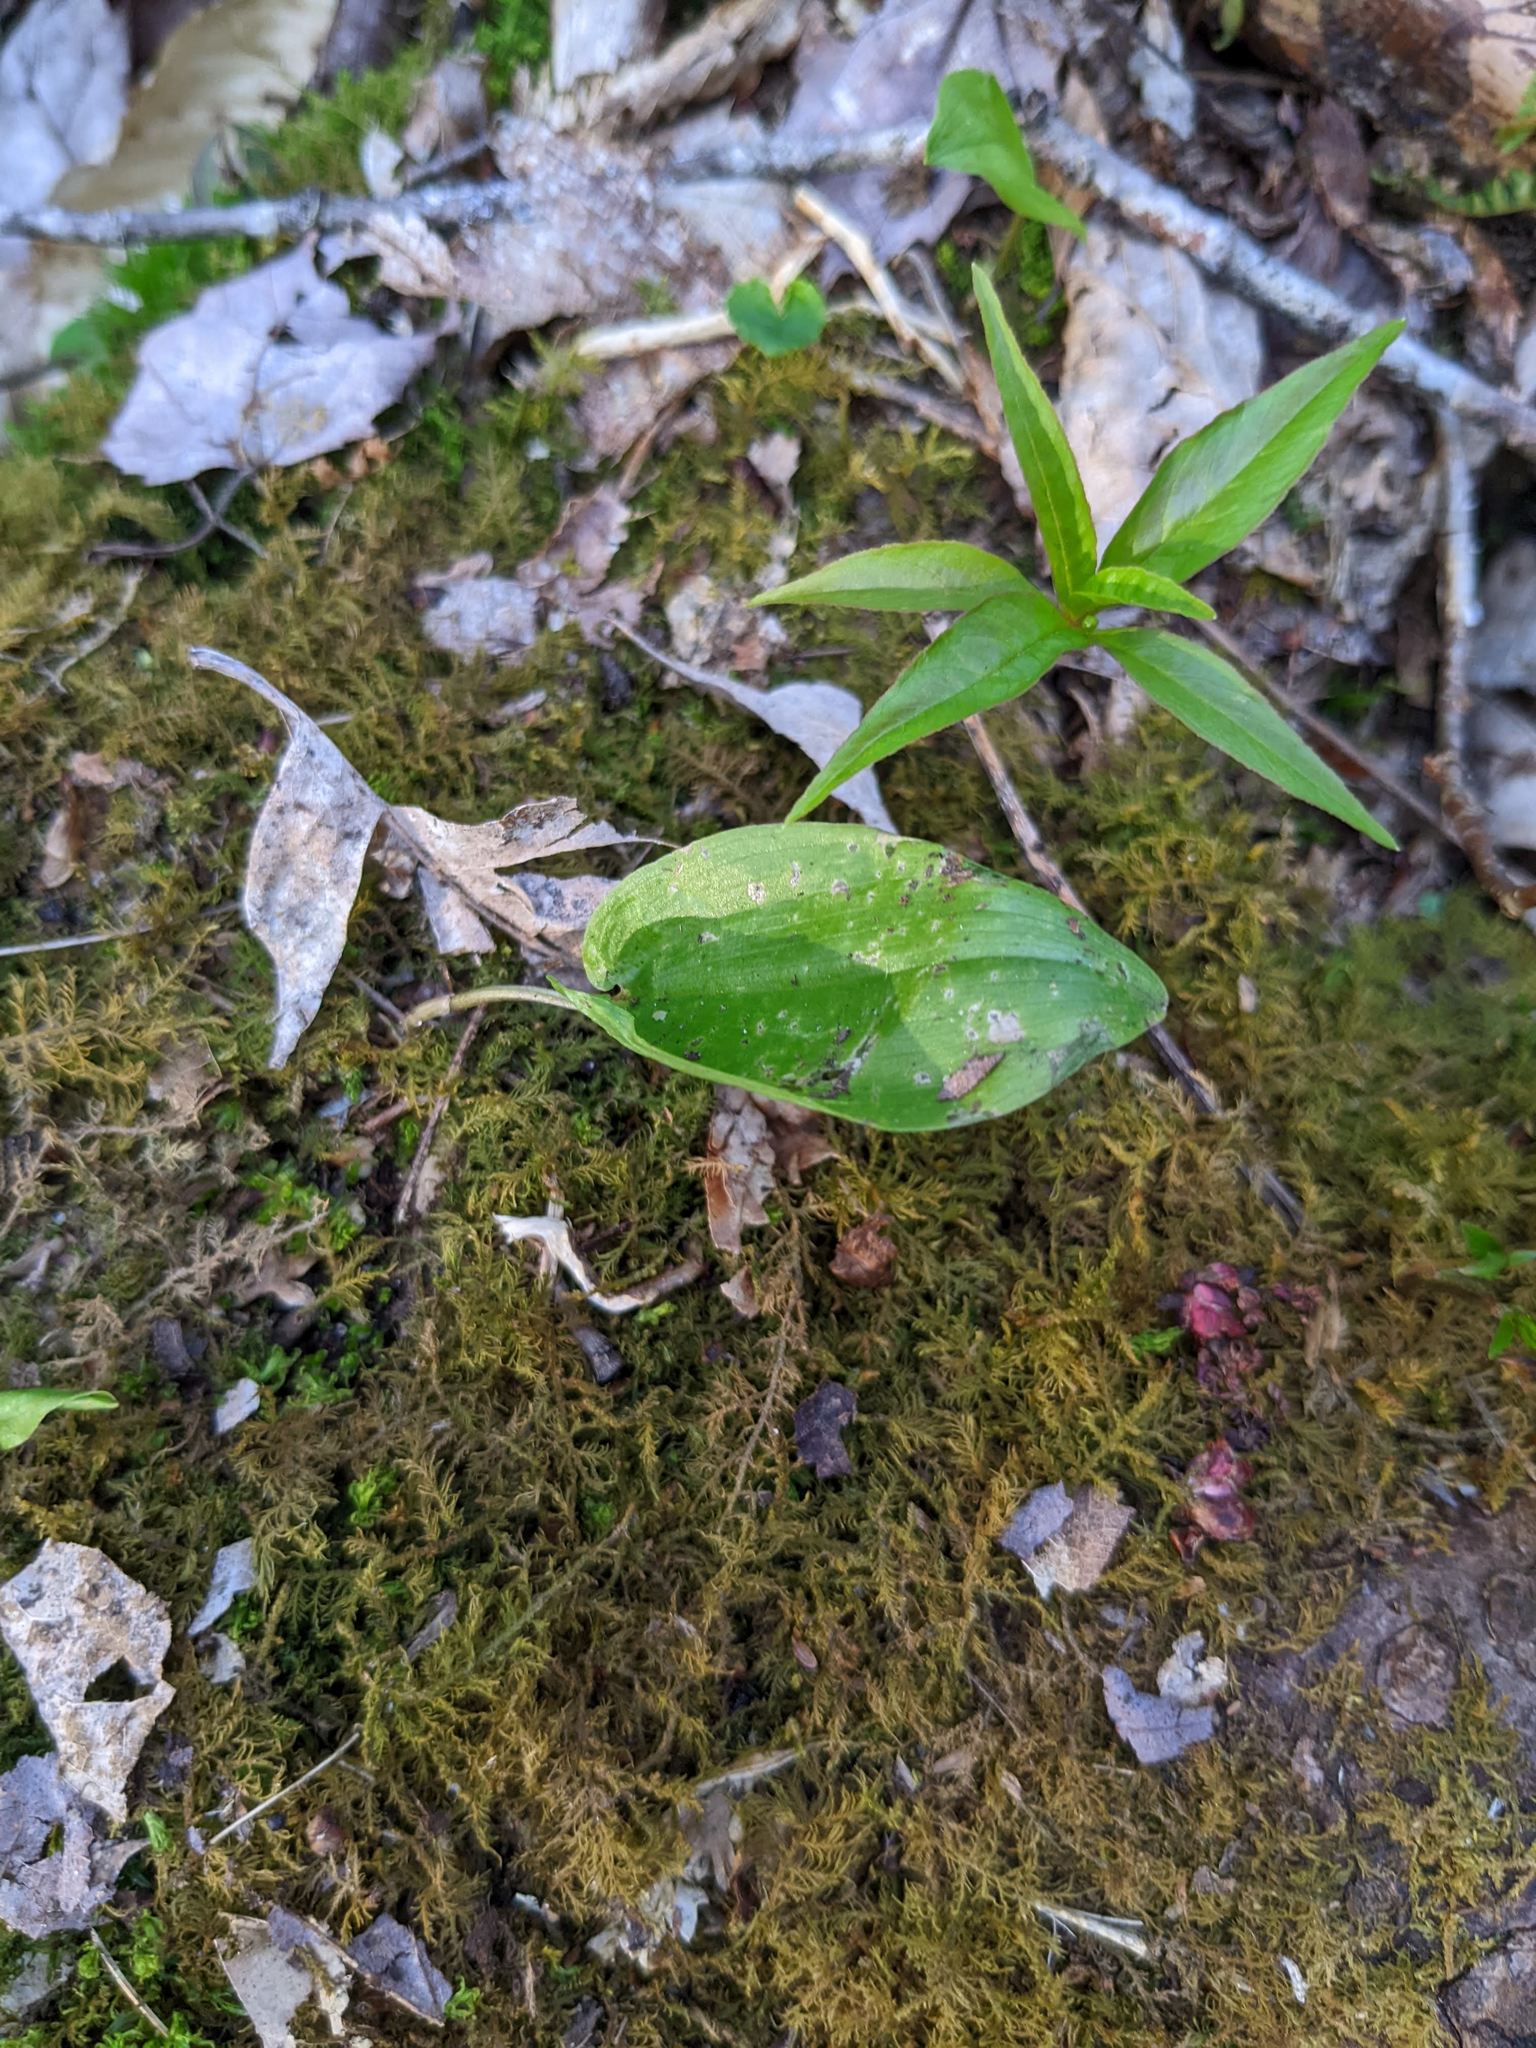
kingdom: Plantae
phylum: Tracheophyta
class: Liliopsida
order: Asparagales
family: Asparagaceae
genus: Maianthemum
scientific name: Maianthemum canadense
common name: False lily-of-the-valley
